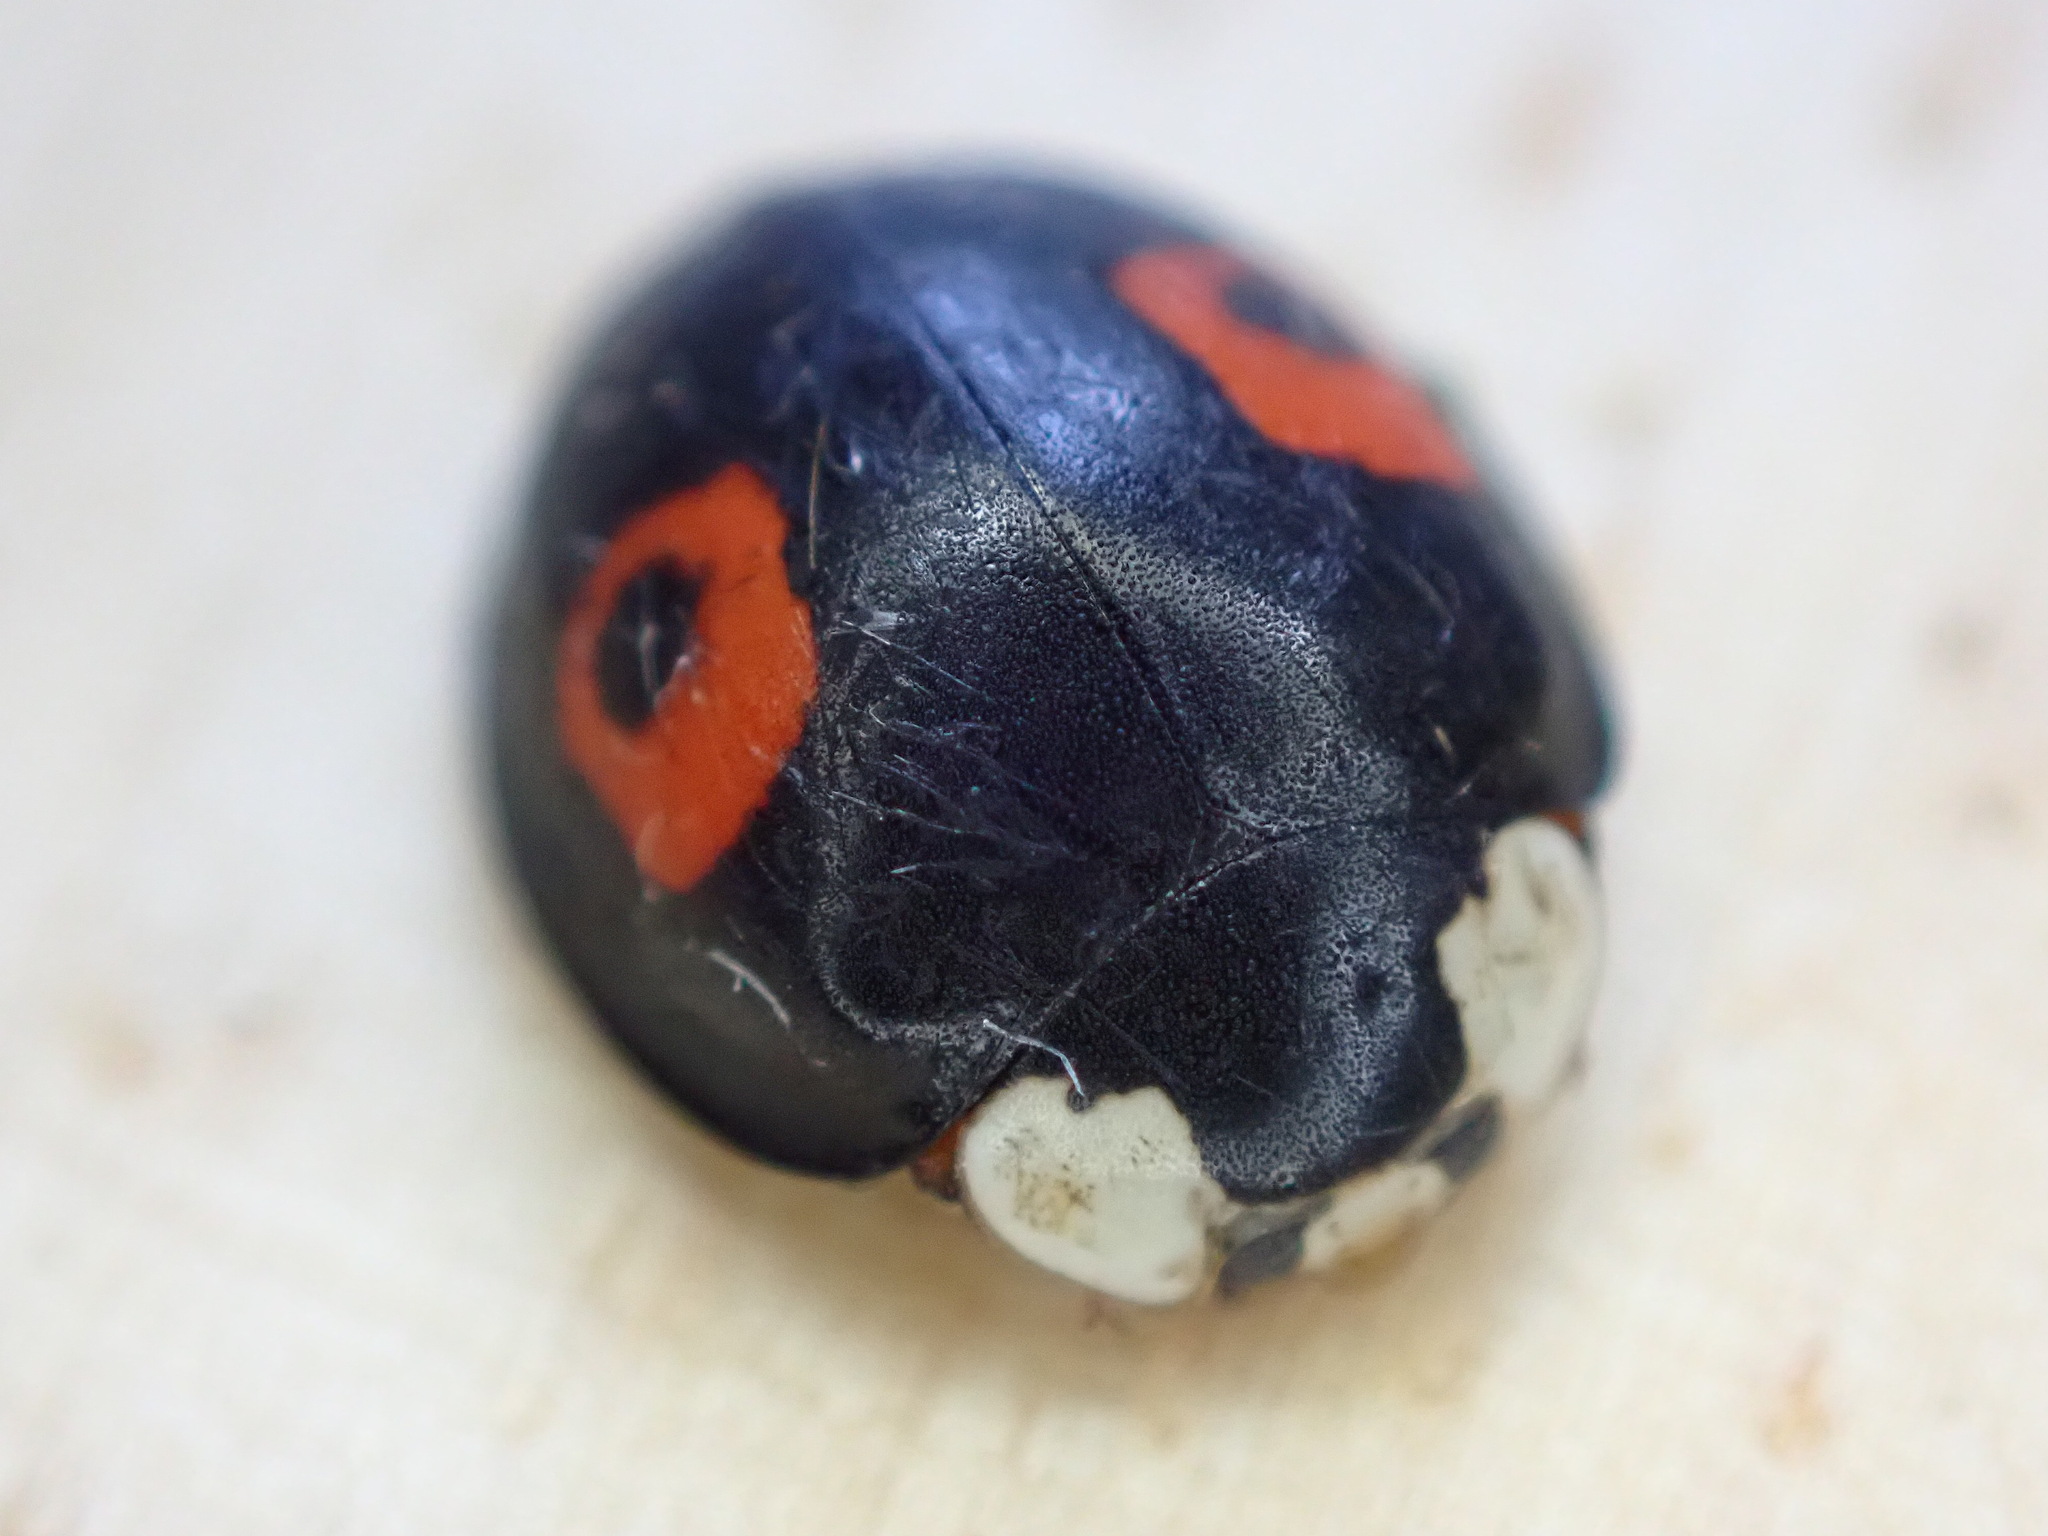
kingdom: Animalia
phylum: Arthropoda
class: Insecta
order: Coleoptera
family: Coccinellidae
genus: Harmonia
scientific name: Harmonia axyridis
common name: Harlequin ladybird
